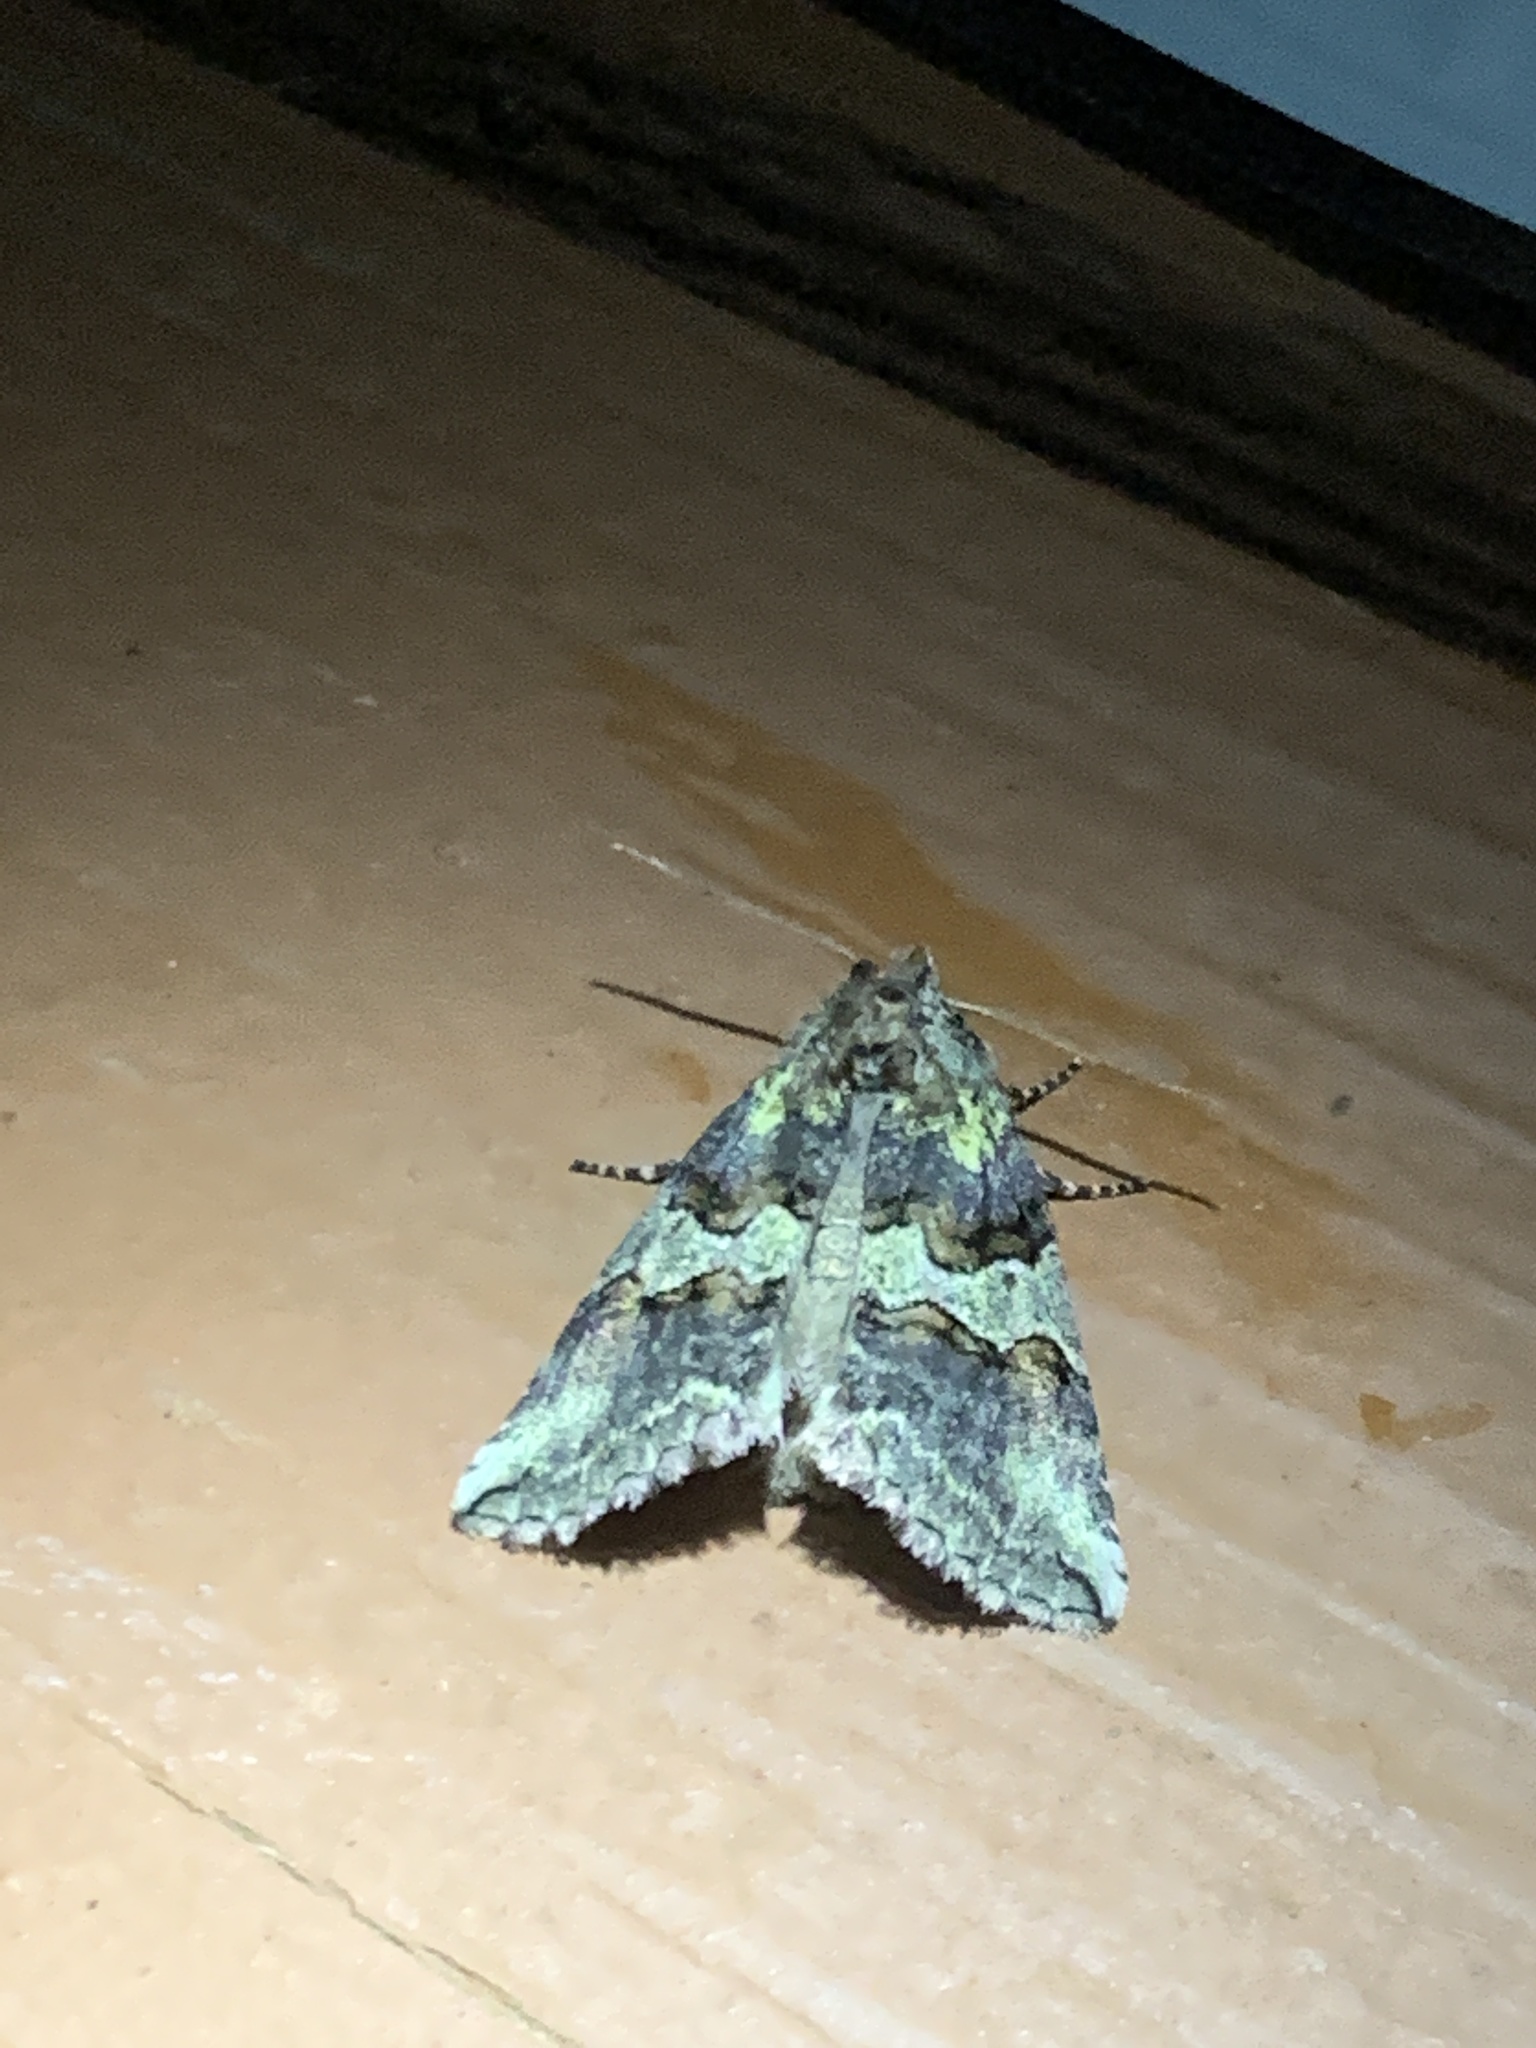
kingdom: Animalia
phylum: Arthropoda
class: Insecta
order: Lepidoptera
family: Drepanidae
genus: Ceranemota
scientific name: Ceranemota improvisa
